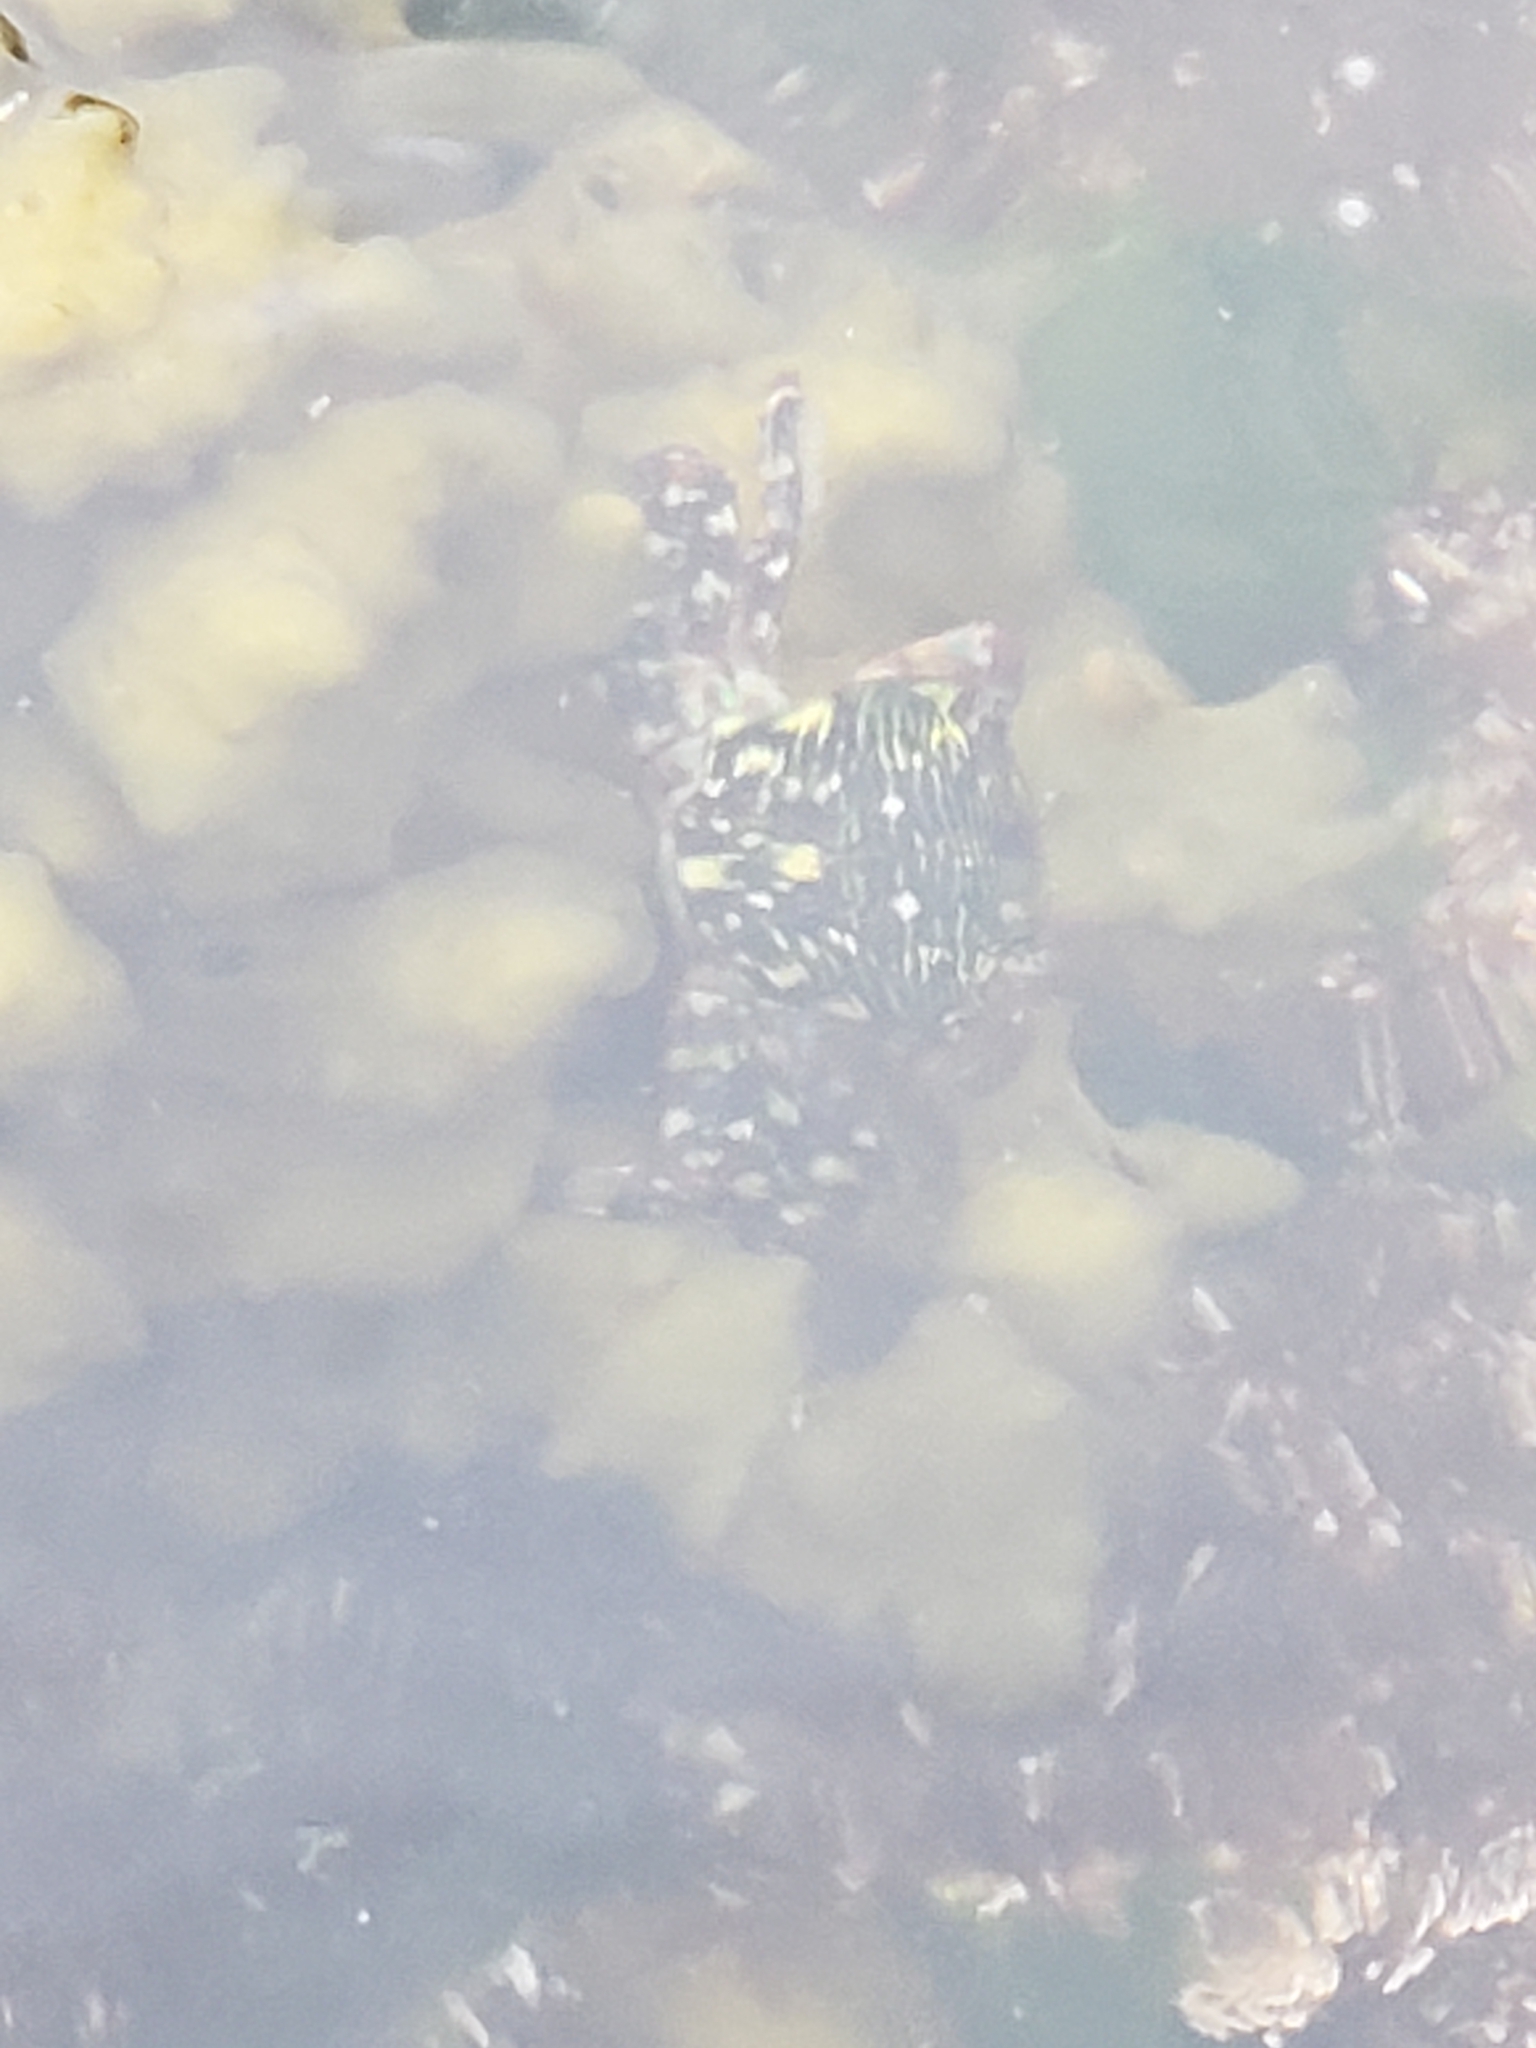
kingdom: Animalia
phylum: Arthropoda
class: Malacostraca
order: Decapoda
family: Grapsidae
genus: Pachygrapsus
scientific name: Pachygrapsus crassipes
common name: Striped shore crab
